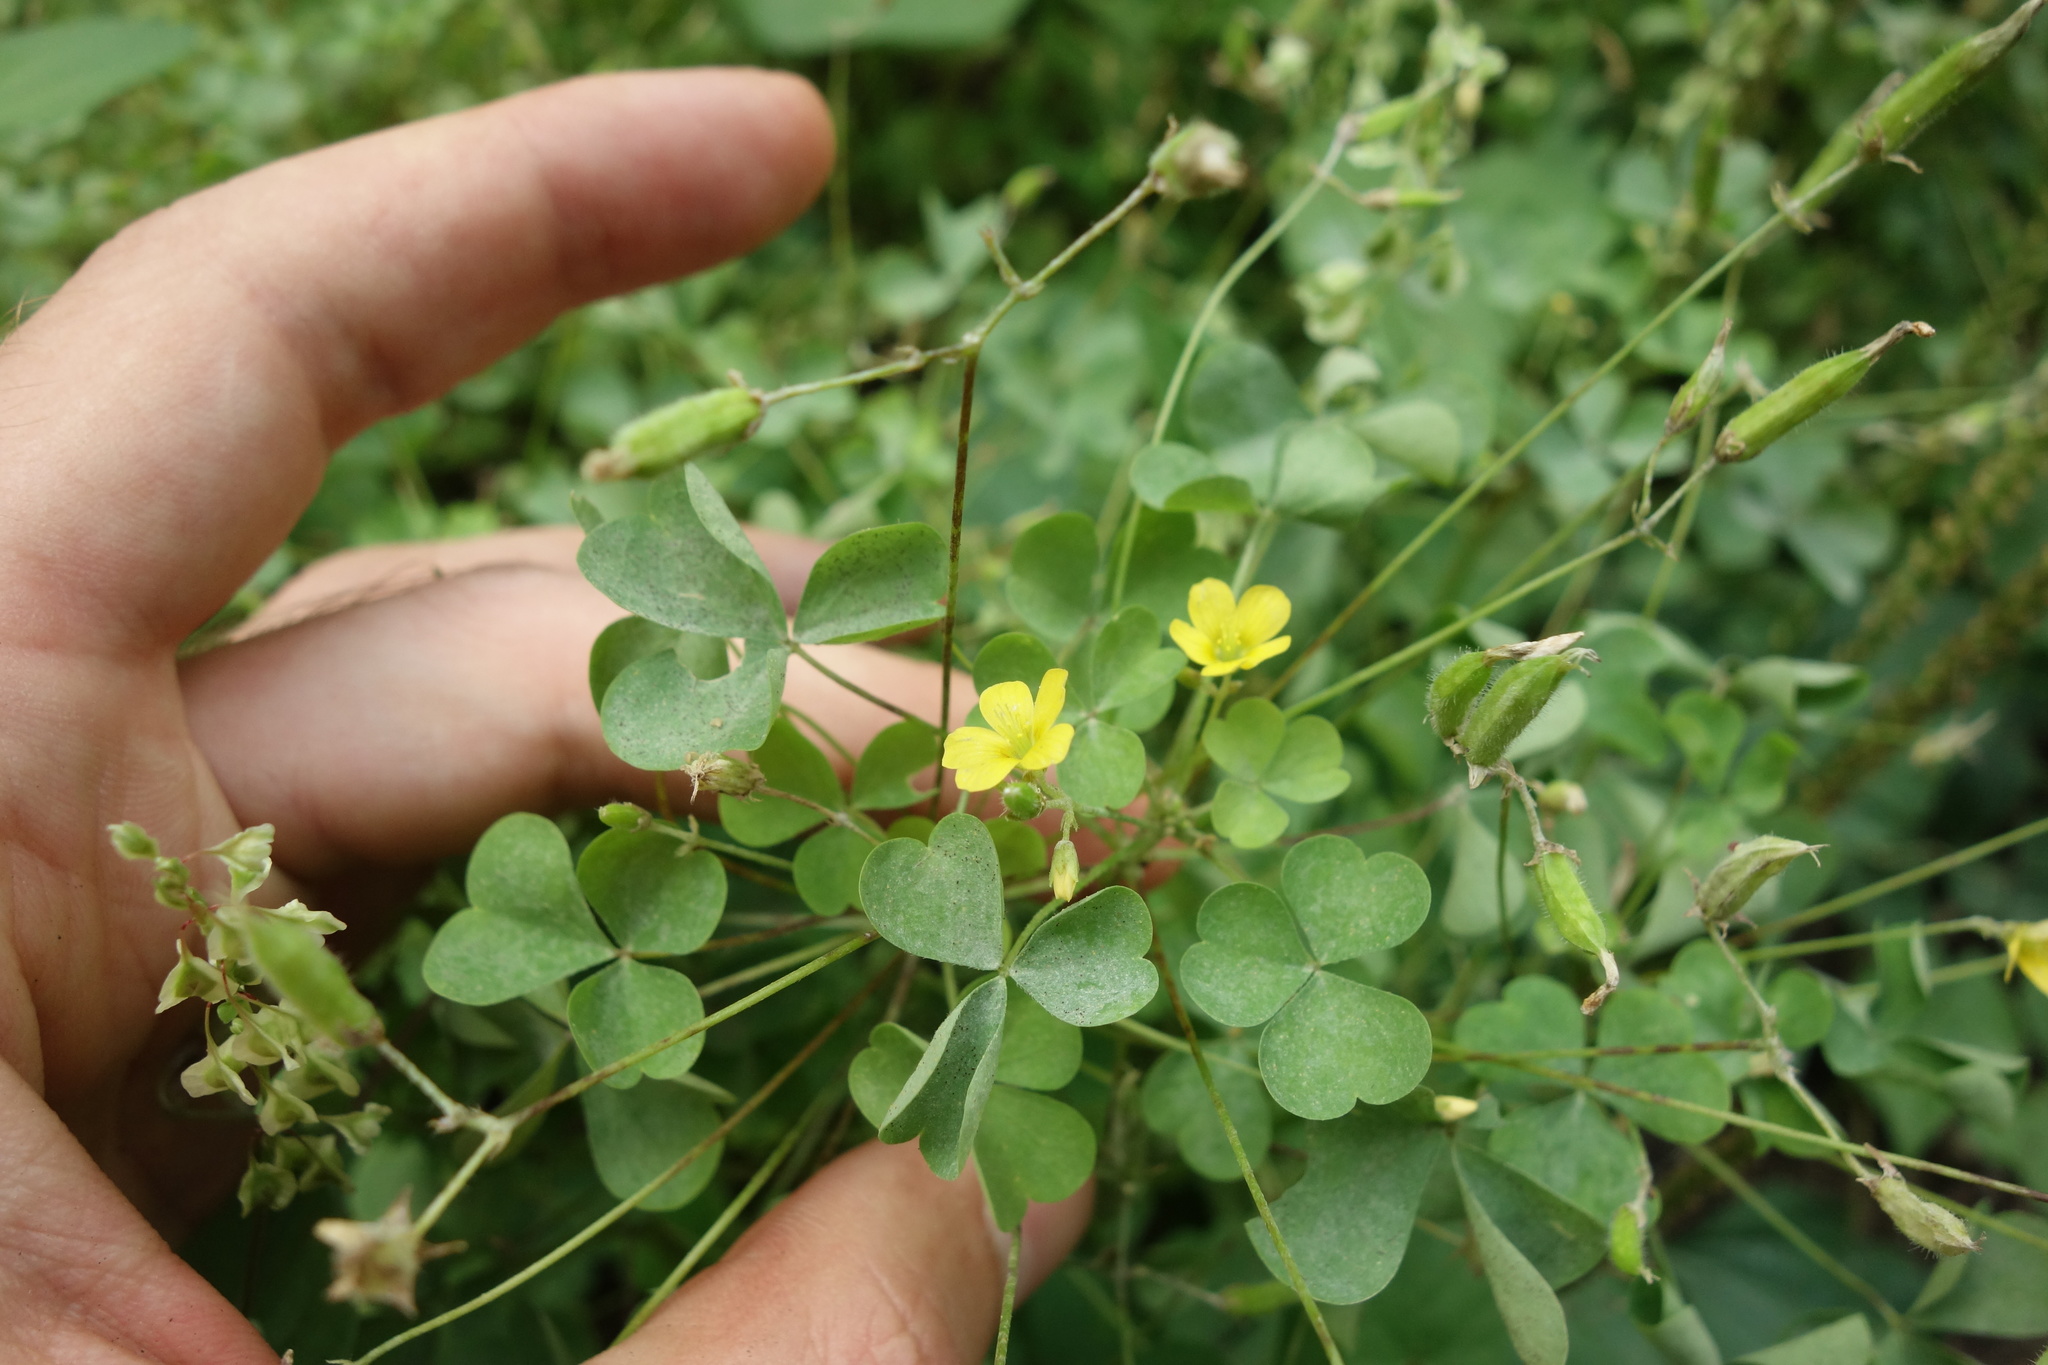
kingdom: Plantae
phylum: Tracheophyta
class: Magnoliopsida
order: Oxalidales
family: Oxalidaceae
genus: Oxalis
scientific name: Oxalis stricta
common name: Upright yellow-sorrel
